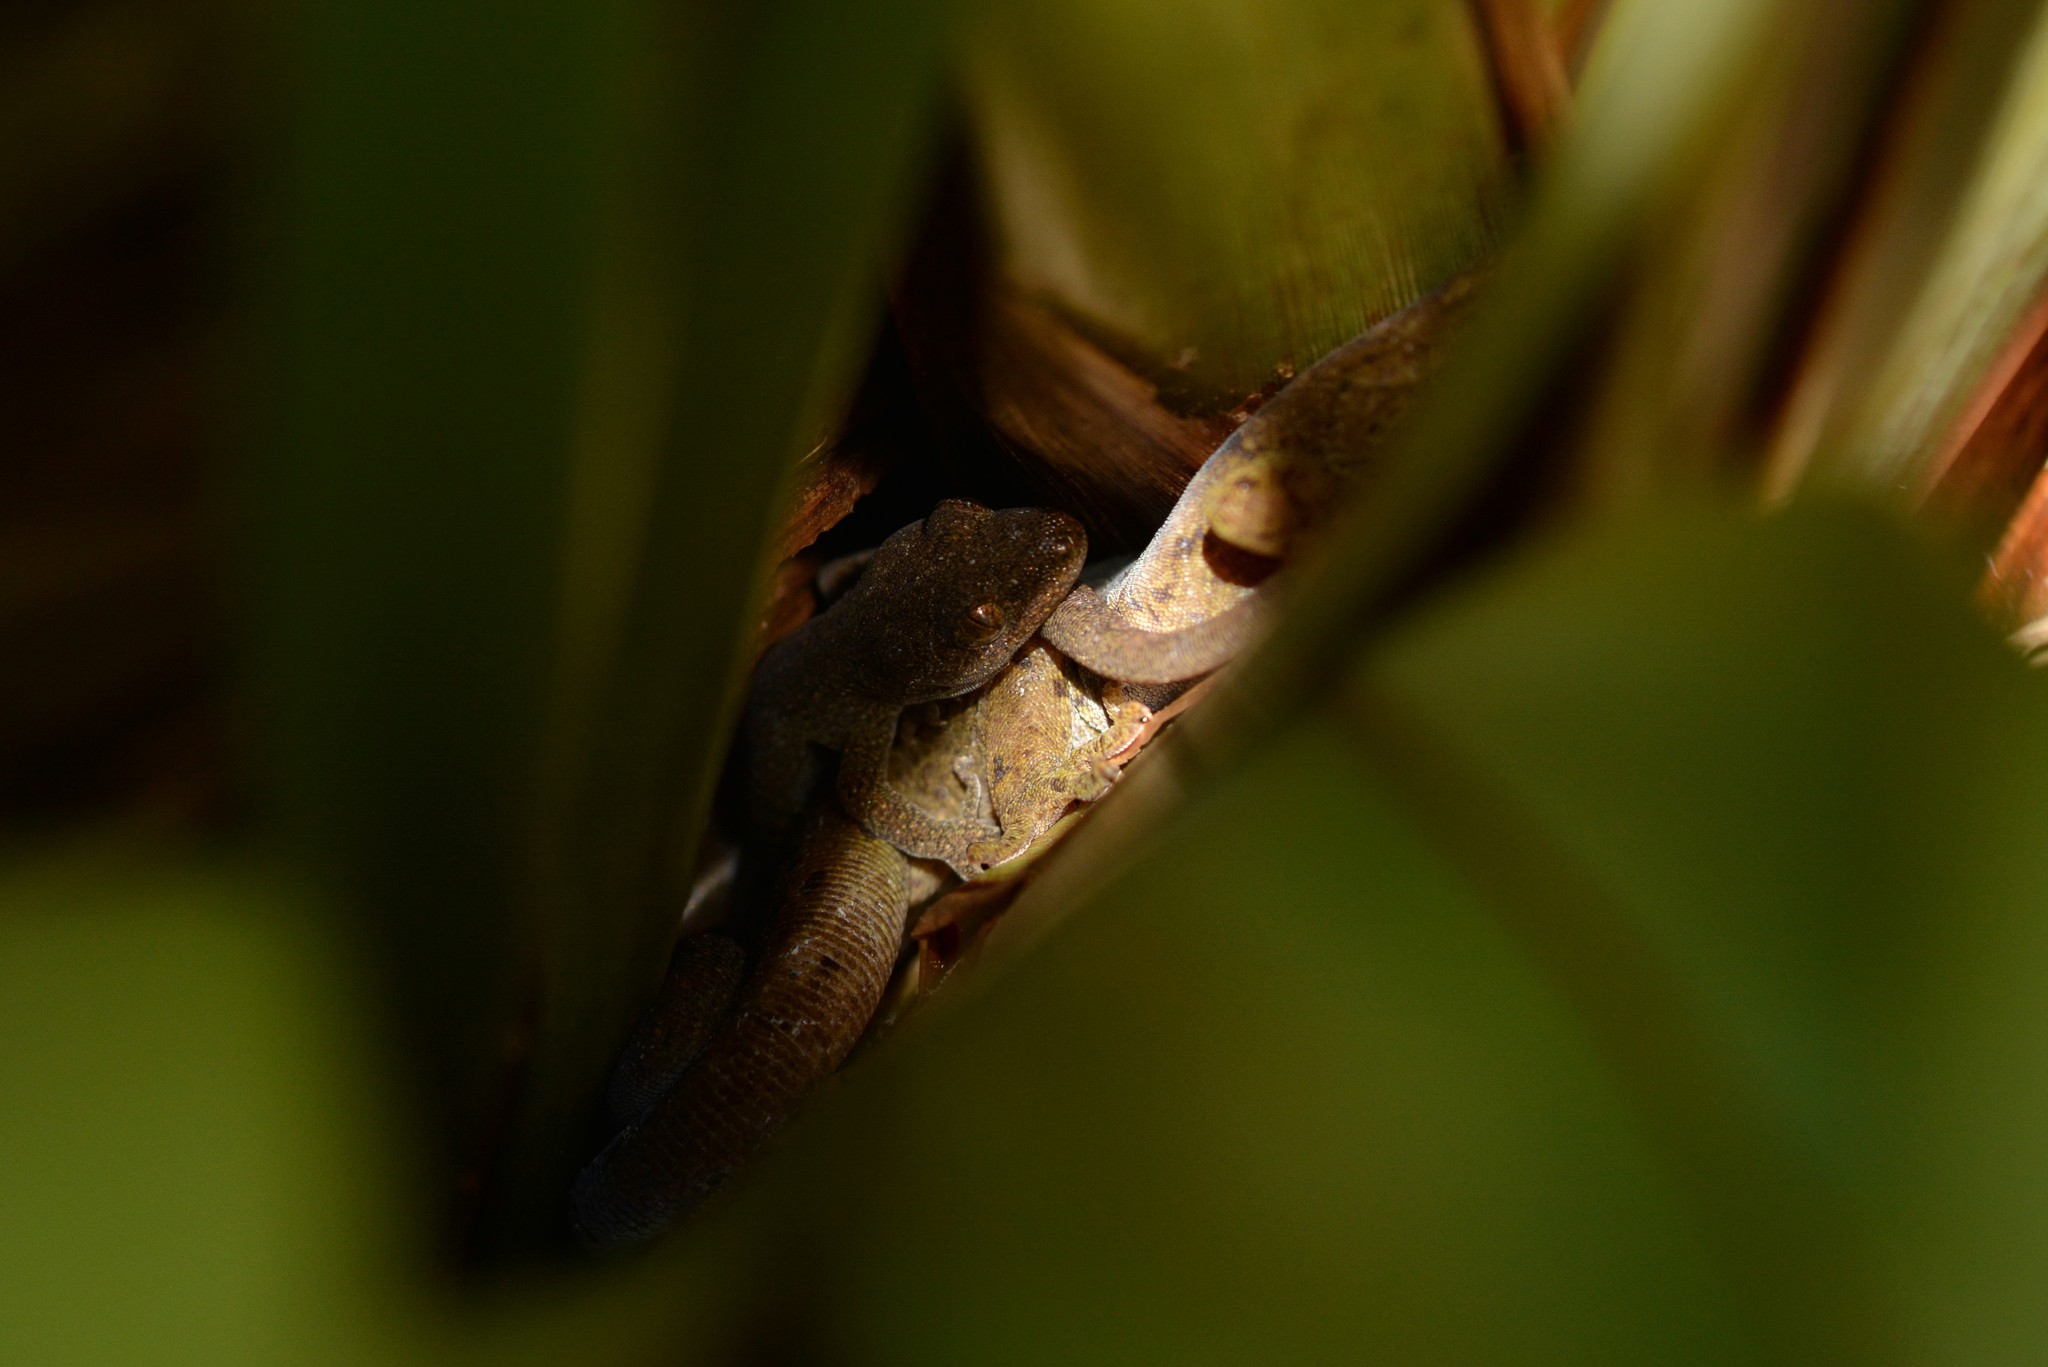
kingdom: Animalia
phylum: Chordata
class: Squamata
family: Diplodactylidae
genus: Woodworthia
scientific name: Woodworthia maculata
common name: Raukawa gecko
